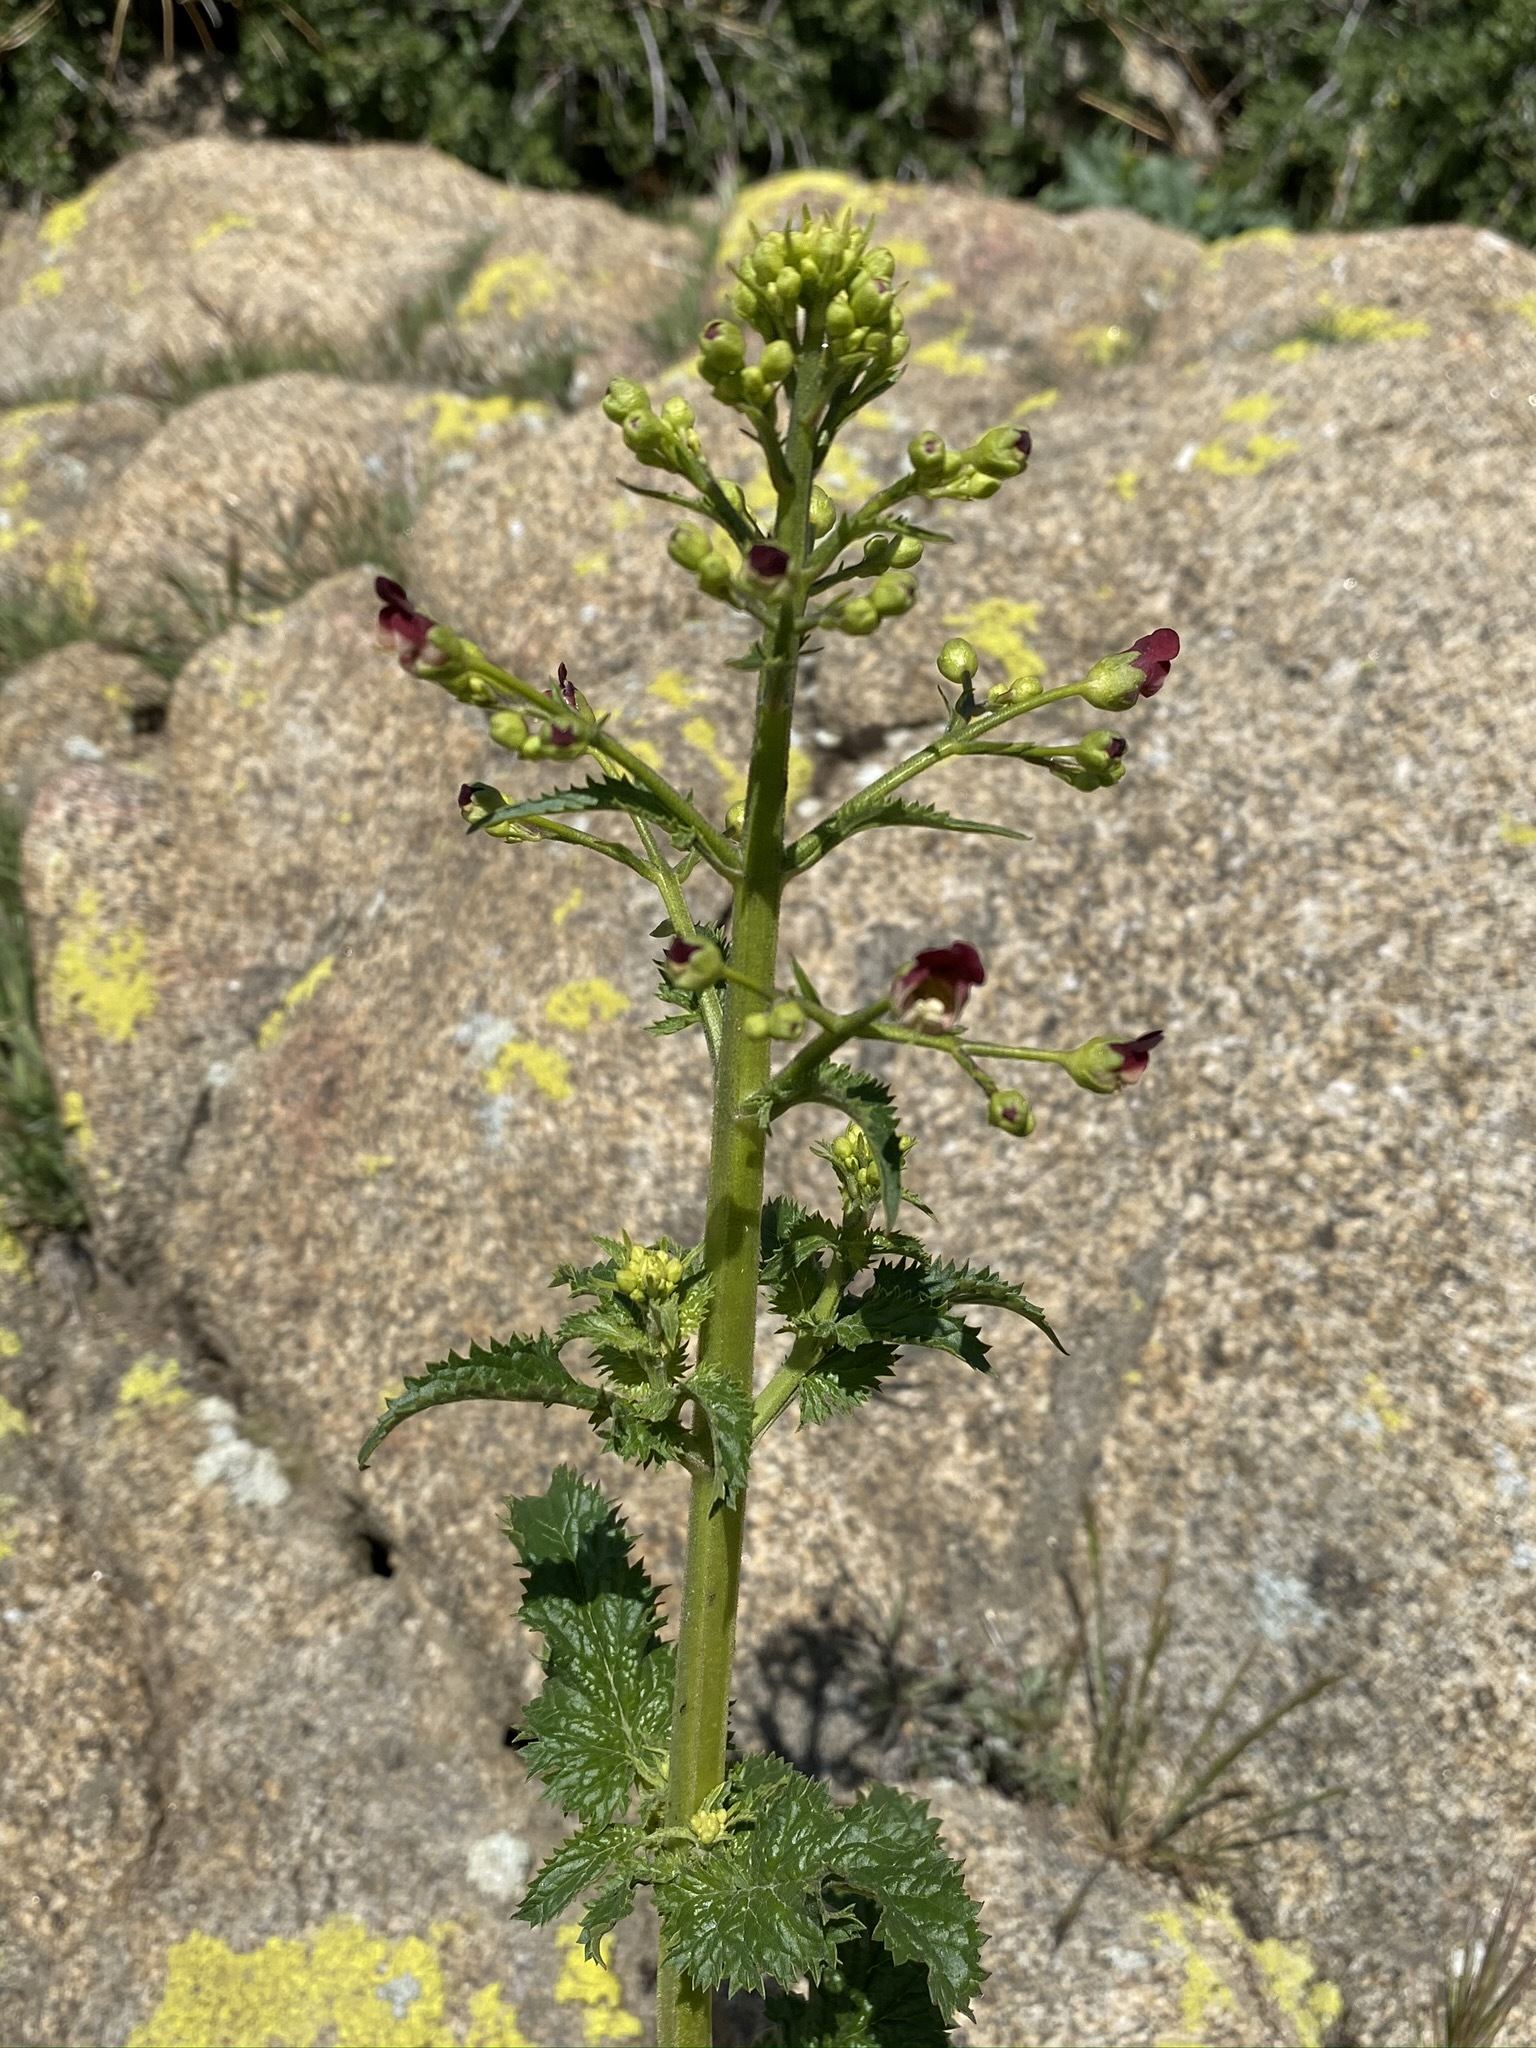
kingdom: Plantae
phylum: Tracheophyta
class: Magnoliopsida
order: Lamiales
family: Scrophulariaceae
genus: Scrophularia
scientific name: Scrophularia californica
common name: California figwort
